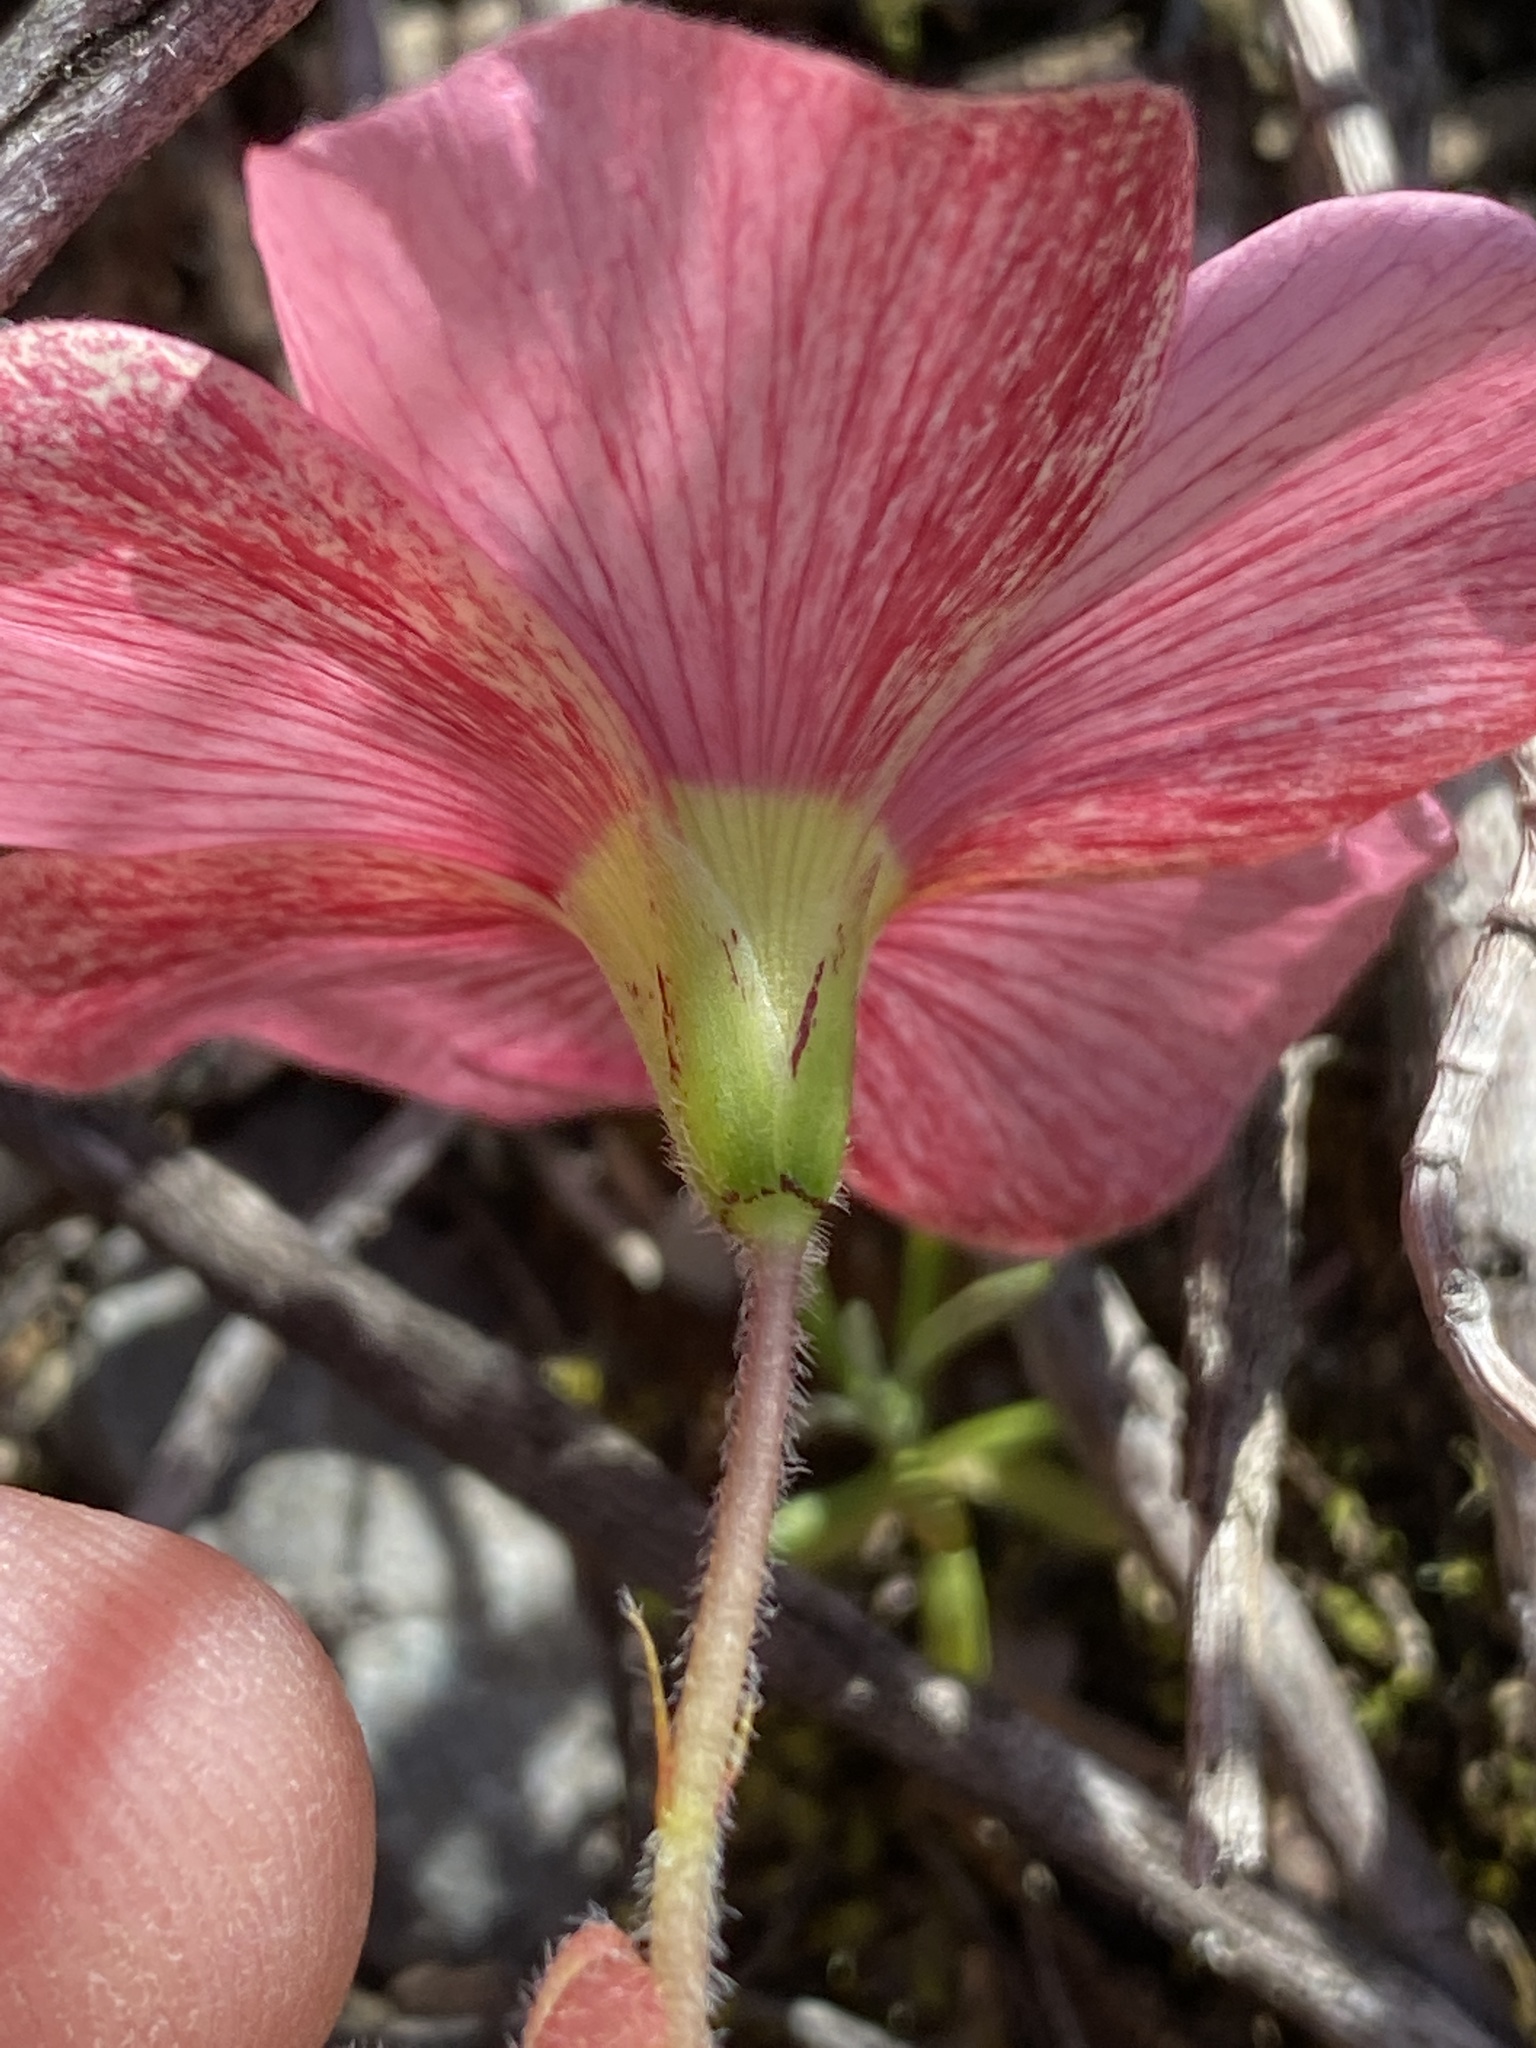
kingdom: Plantae
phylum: Tracheophyta
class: Magnoliopsida
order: Oxalidales
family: Oxalidaceae
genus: Oxalis
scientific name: Oxalis obtusa
